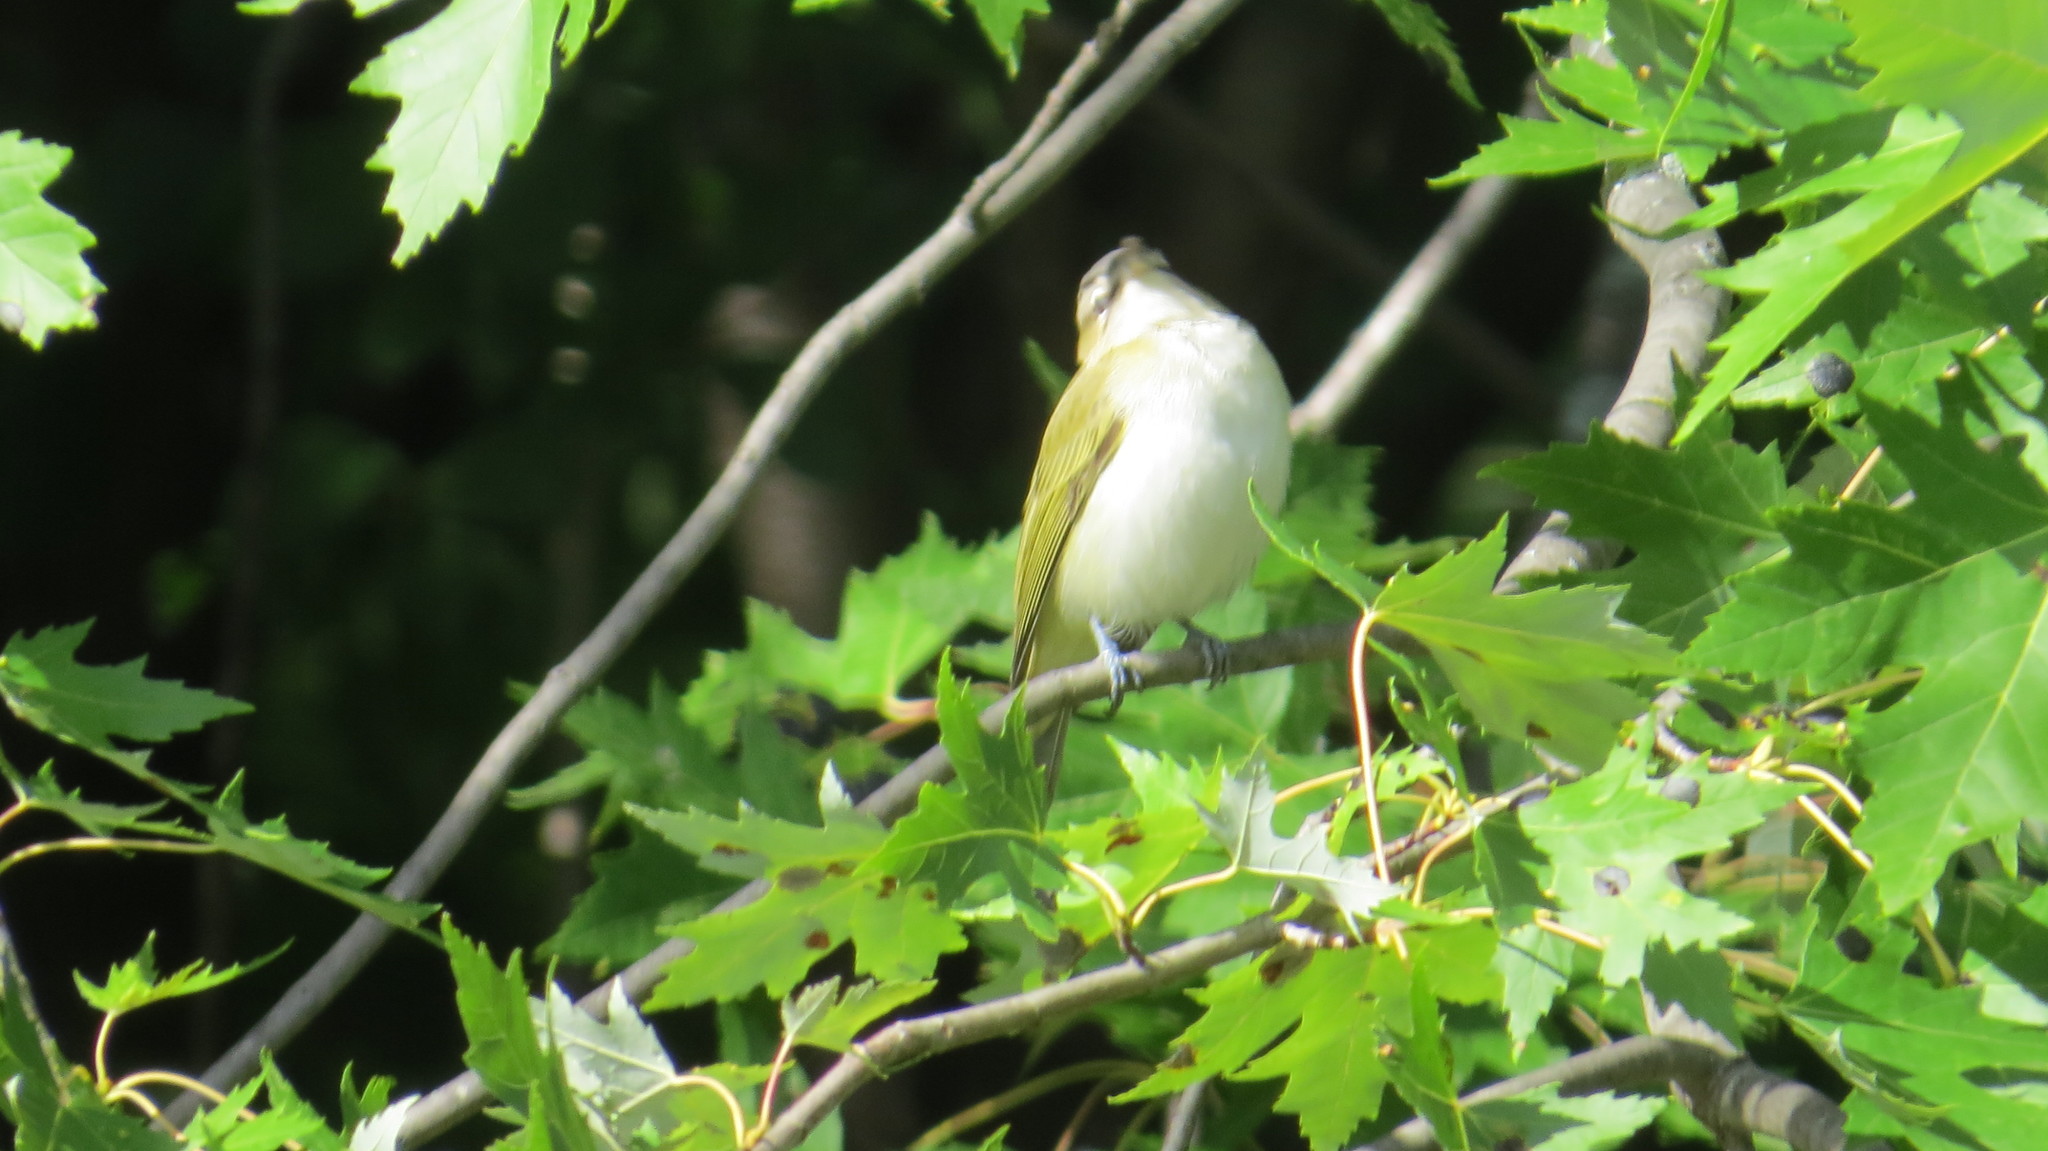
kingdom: Animalia
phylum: Chordata
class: Aves
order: Passeriformes
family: Vireonidae
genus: Vireo
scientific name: Vireo olivaceus
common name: Red-eyed vireo
